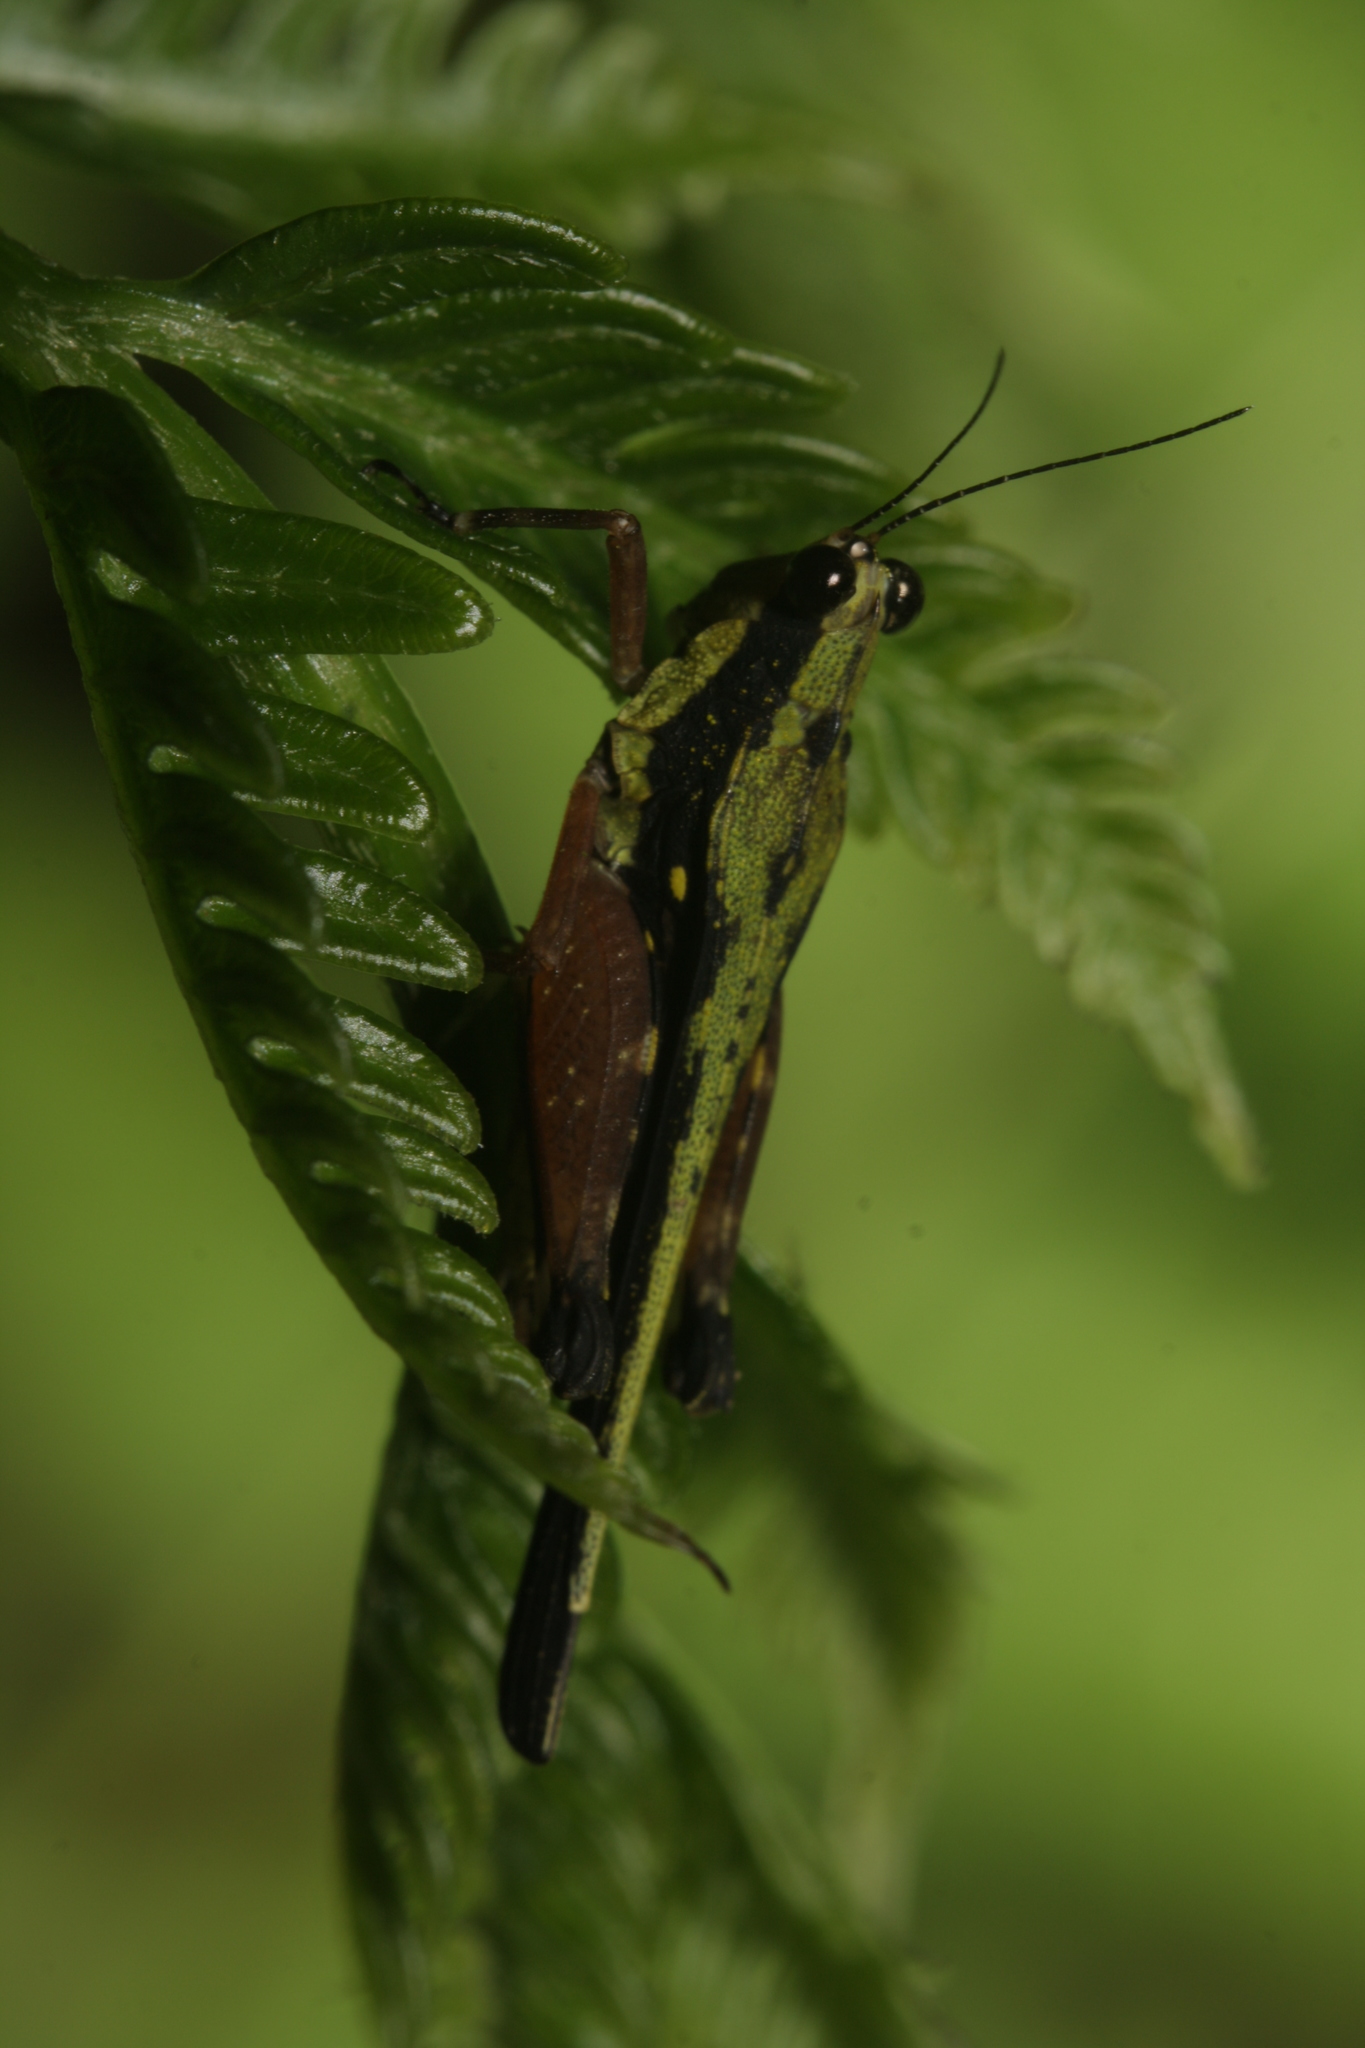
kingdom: Animalia
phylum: Arthropoda
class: Insecta
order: Orthoptera
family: Tetrigidae
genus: Scaria
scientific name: Scaria fasciata
